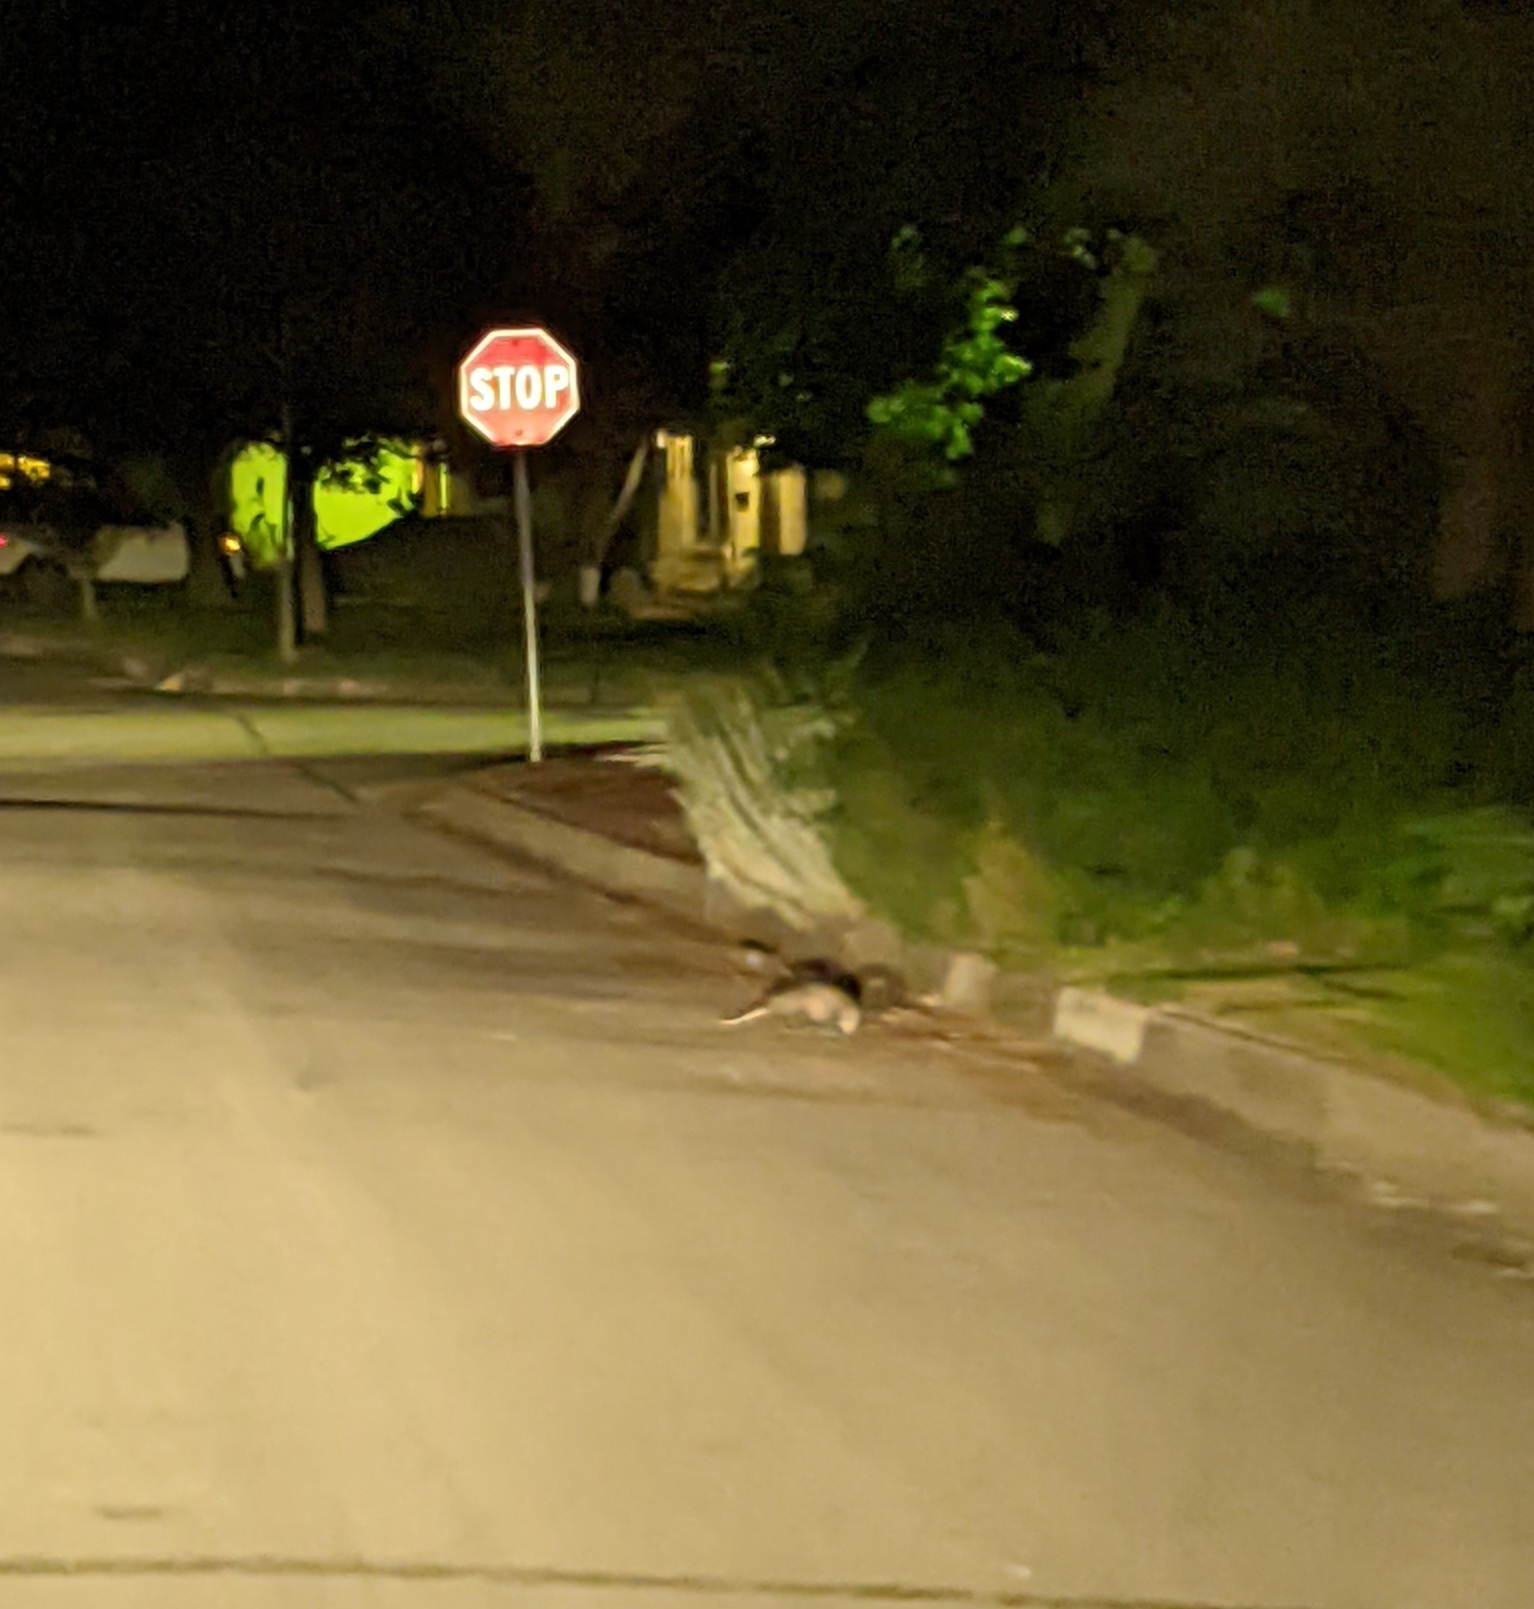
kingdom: Animalia
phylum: Chordata
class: Mammalia
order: Didelphimorphia
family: Didelphidae
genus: Didelphis
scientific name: Didelphis virginiana
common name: Virginia opossum
